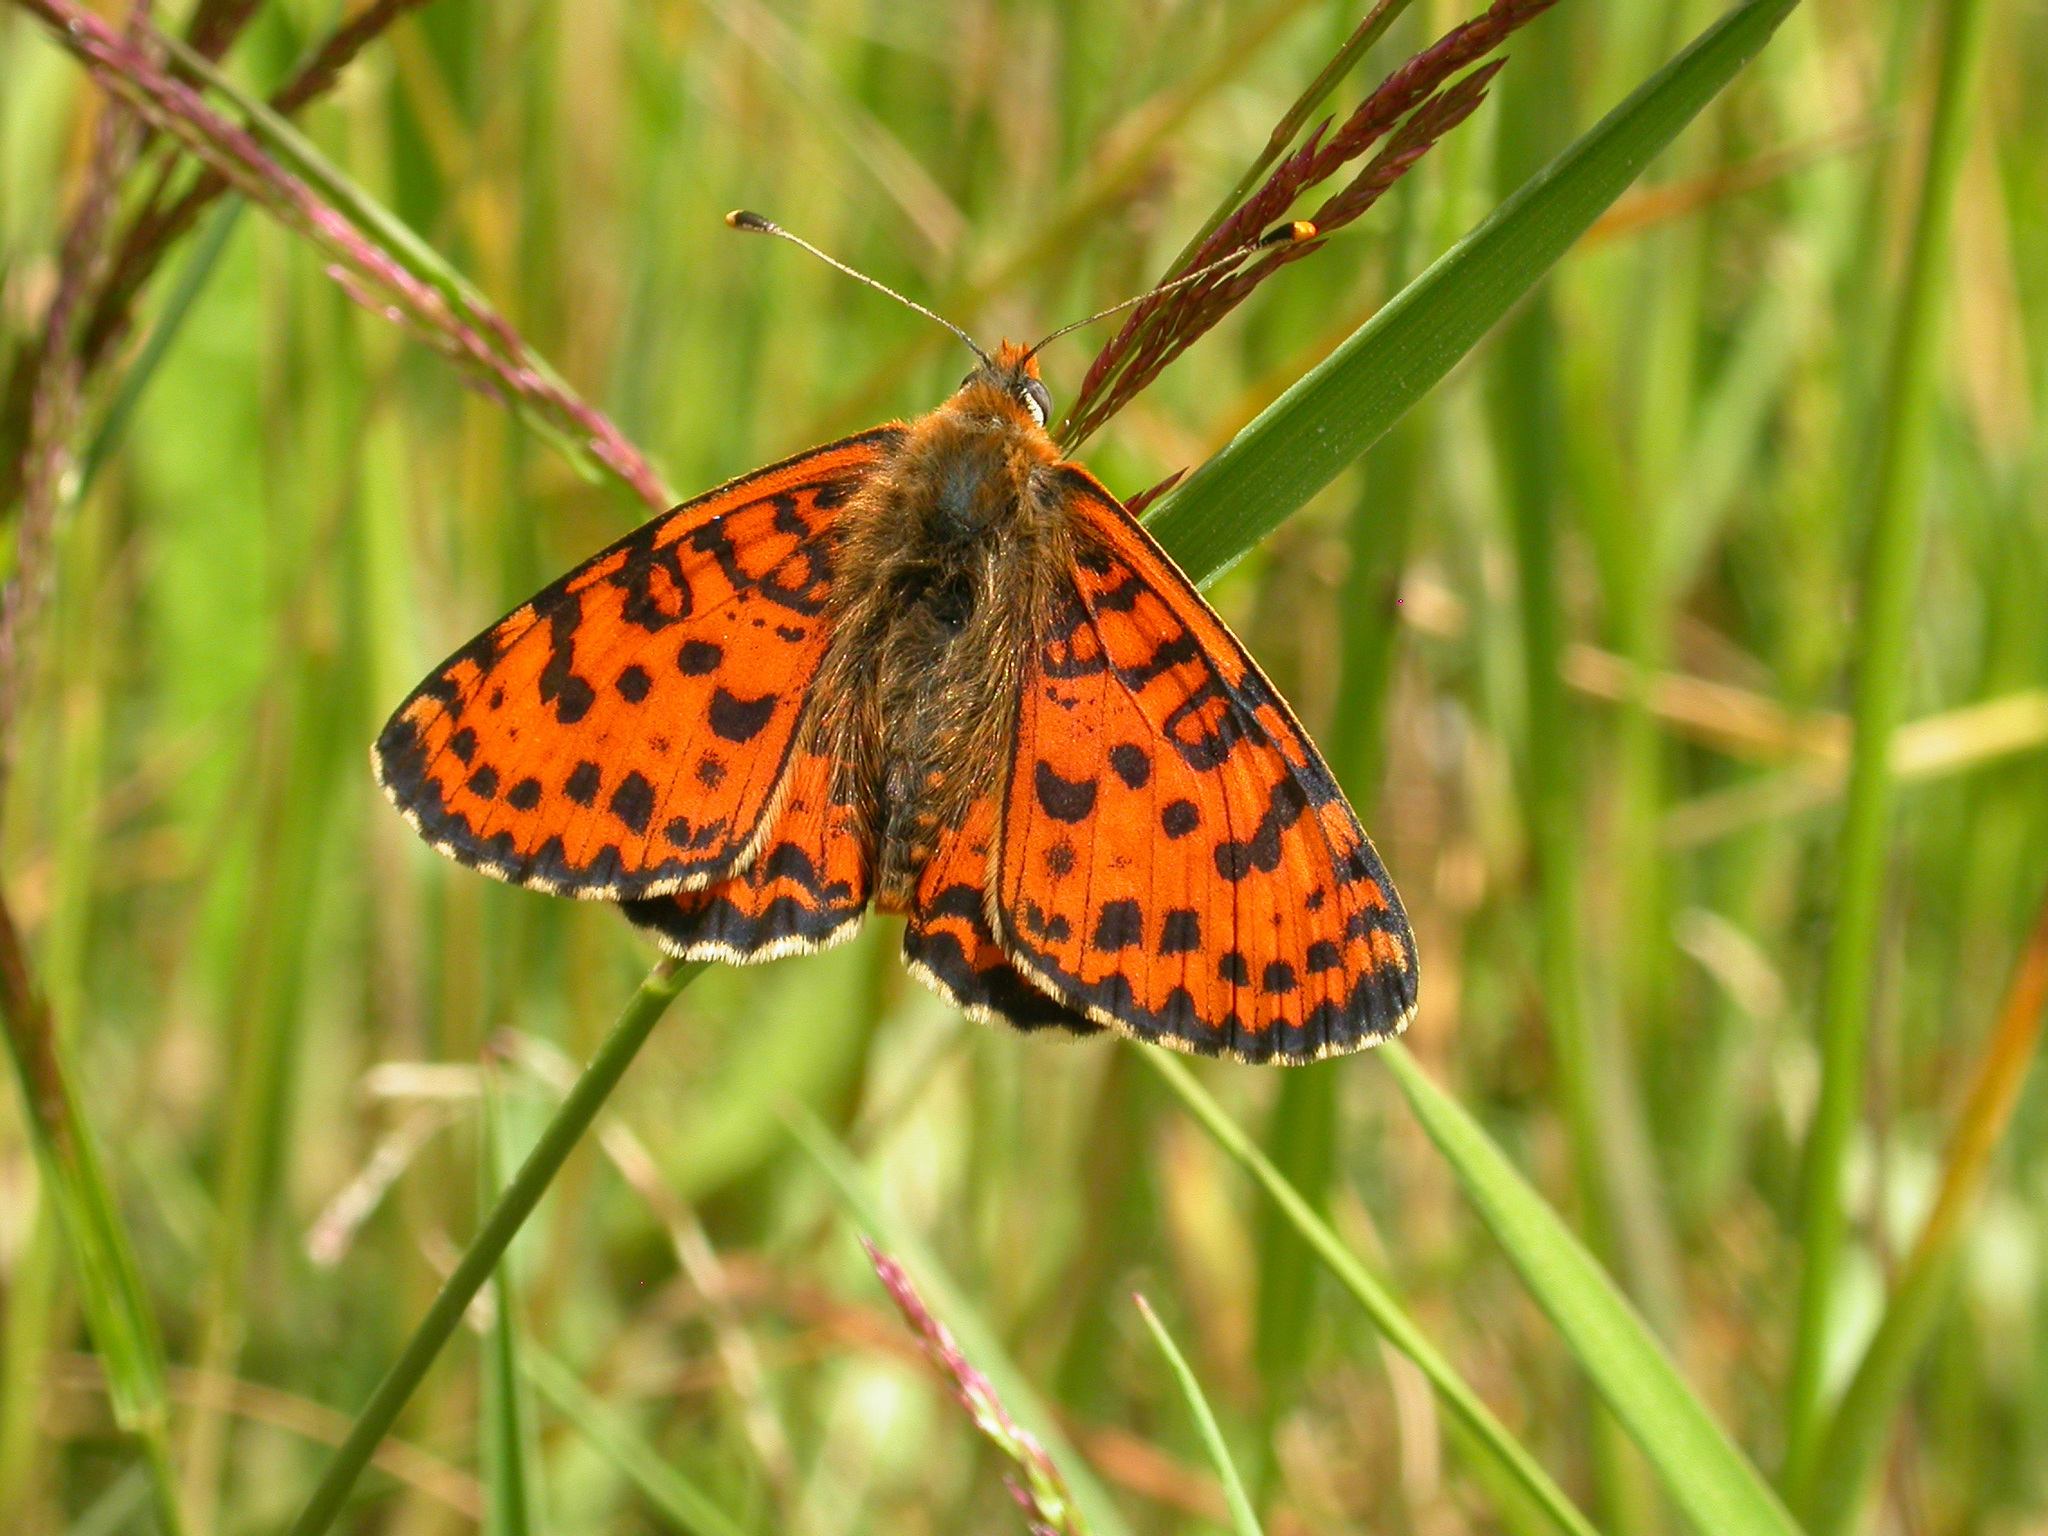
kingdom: Animalia
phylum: Arthropoda
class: Insecta
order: Lepidoptera
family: Nymphalidae
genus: Melitaea
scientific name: Melitaea didyma
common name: Spotted fritillary
